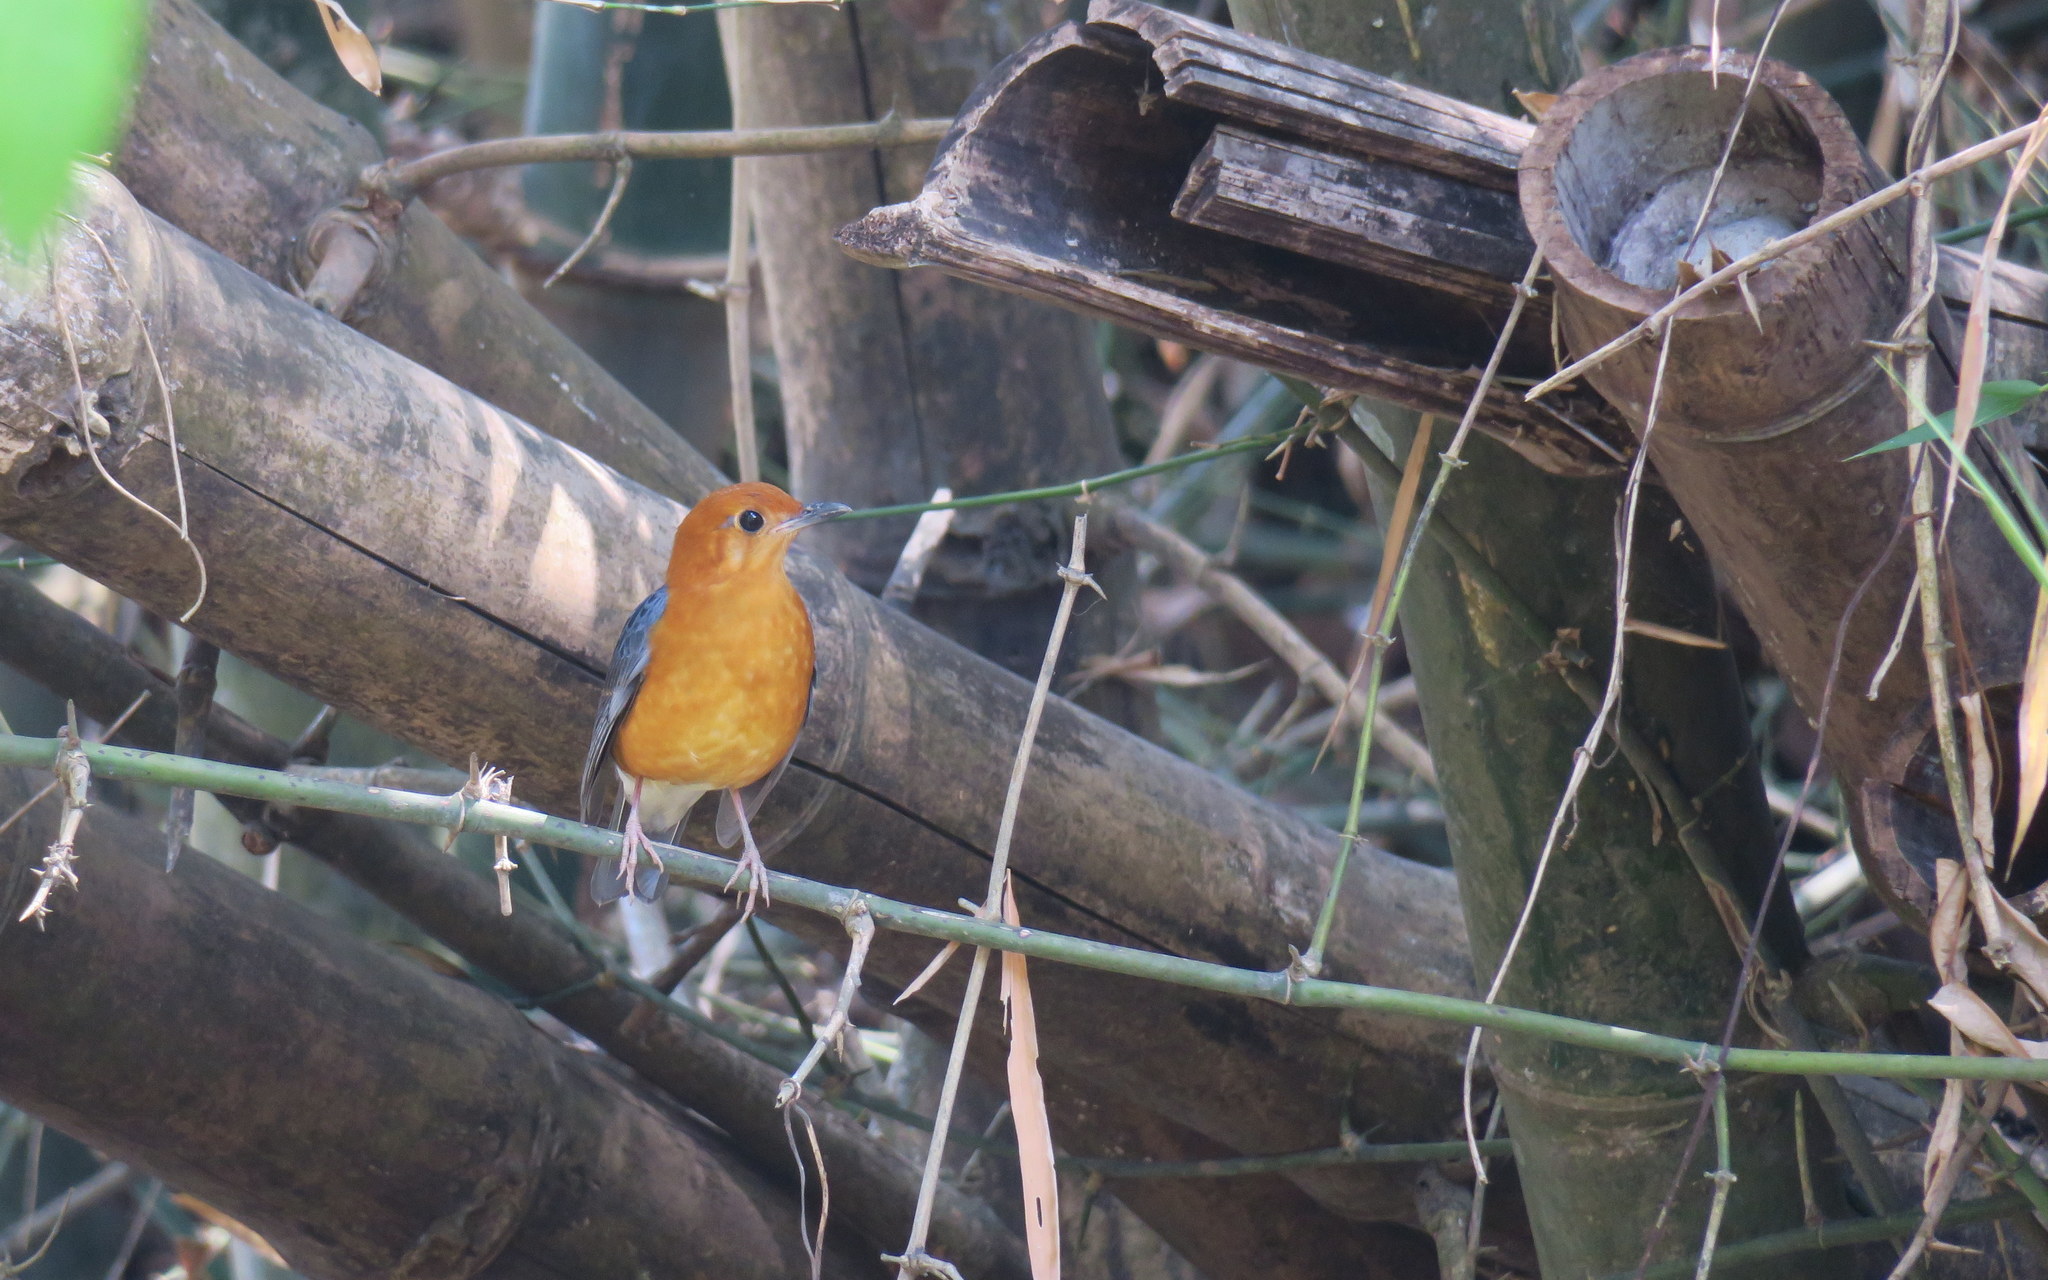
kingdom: Animalia
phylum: Chordata
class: Aves
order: Passeriformes
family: Turdidae
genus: Geokichla
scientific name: Geokichla citrina
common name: Orange-headed thrush
